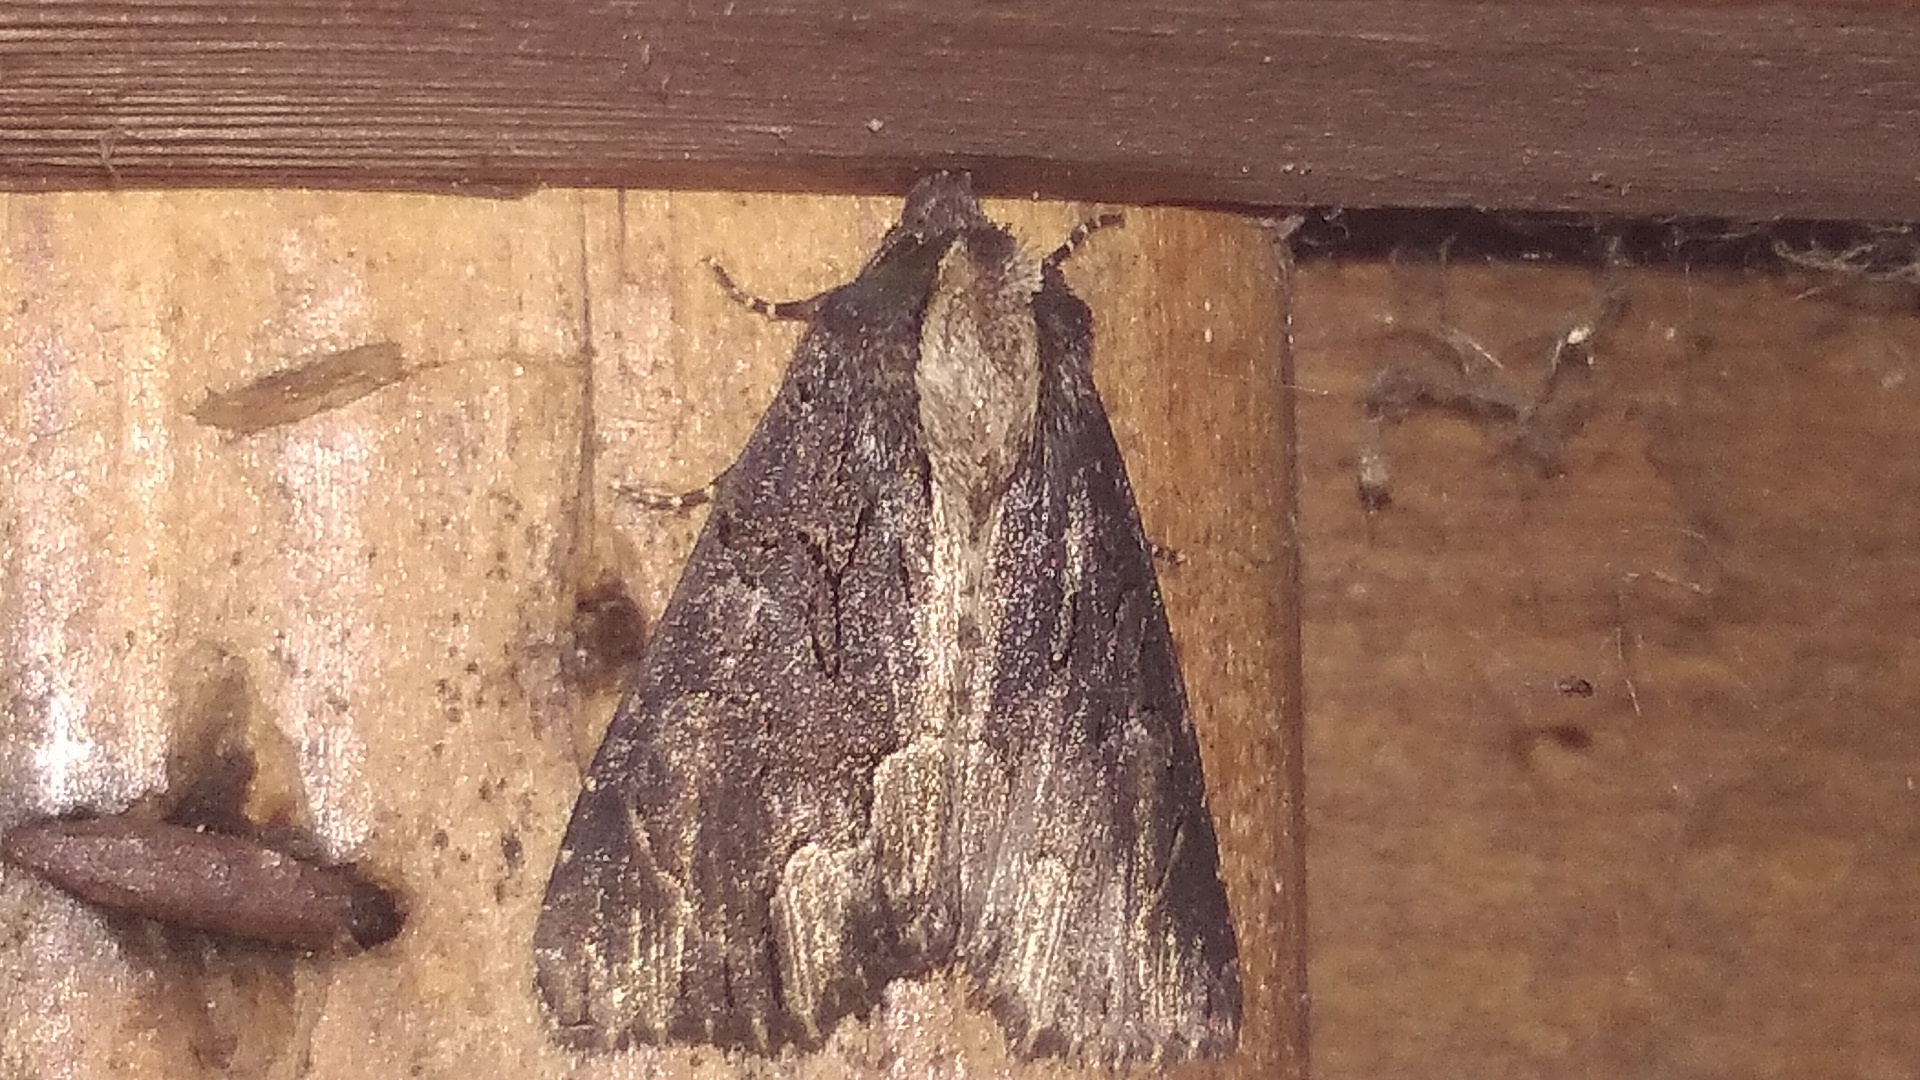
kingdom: Animalia
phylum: Arthropoda
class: Insecta
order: Lepidoptera
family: Noctuidae
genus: Dypterygia
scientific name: Dypterygia scabriuscula
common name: Bird's wing
